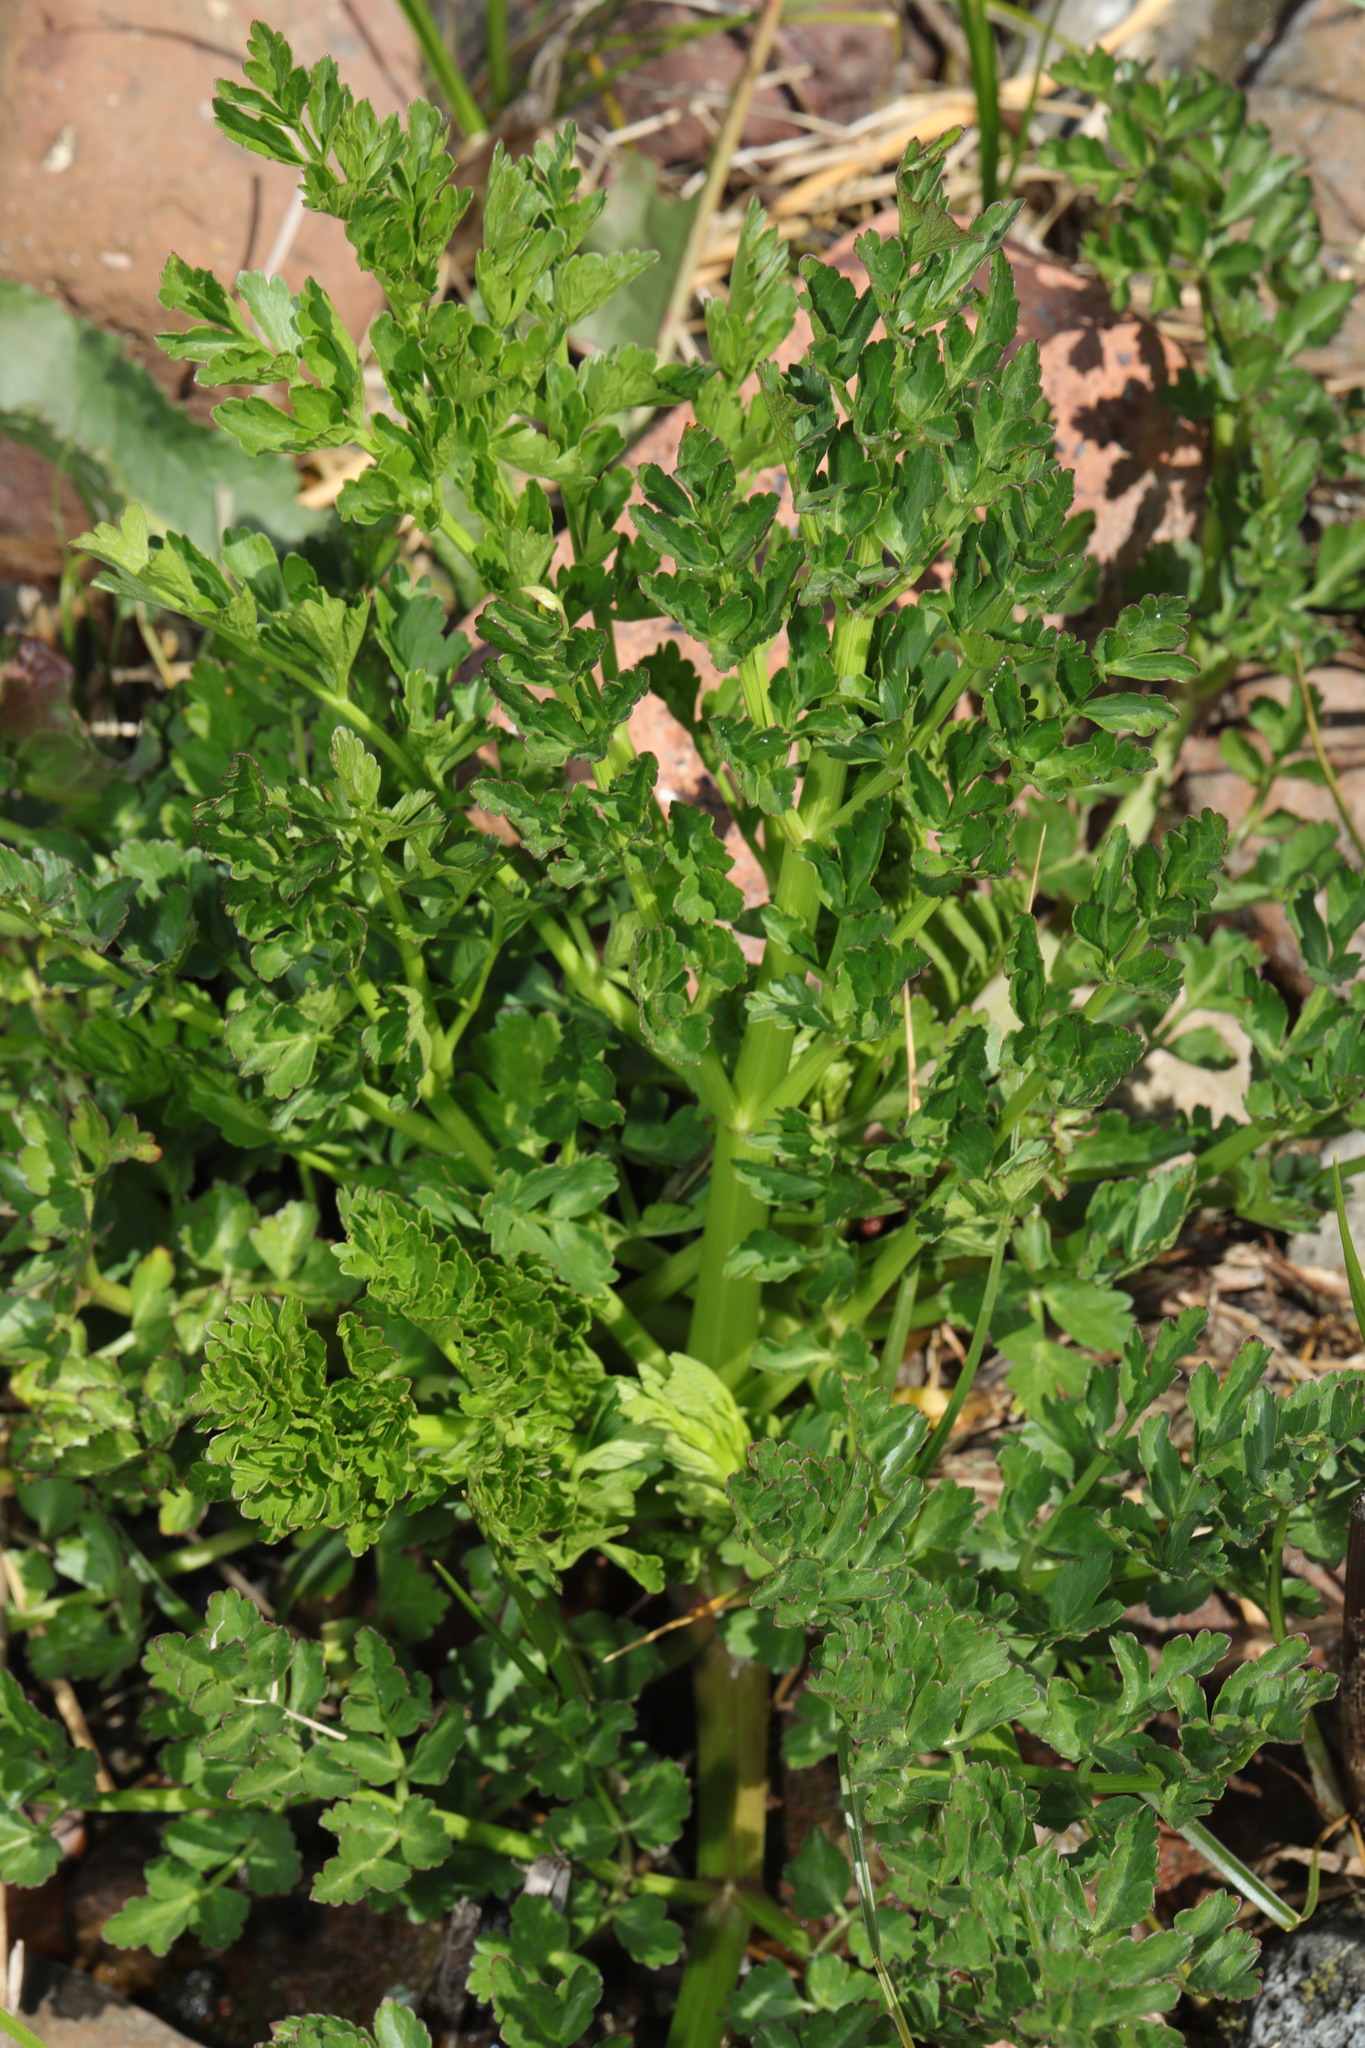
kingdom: Plantae
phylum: Tracheophyta
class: Magnoliopsida
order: Apiales
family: Apiaceae
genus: Oenanthe
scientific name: Oenanthe crocata
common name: Hemlock water-dropwort
